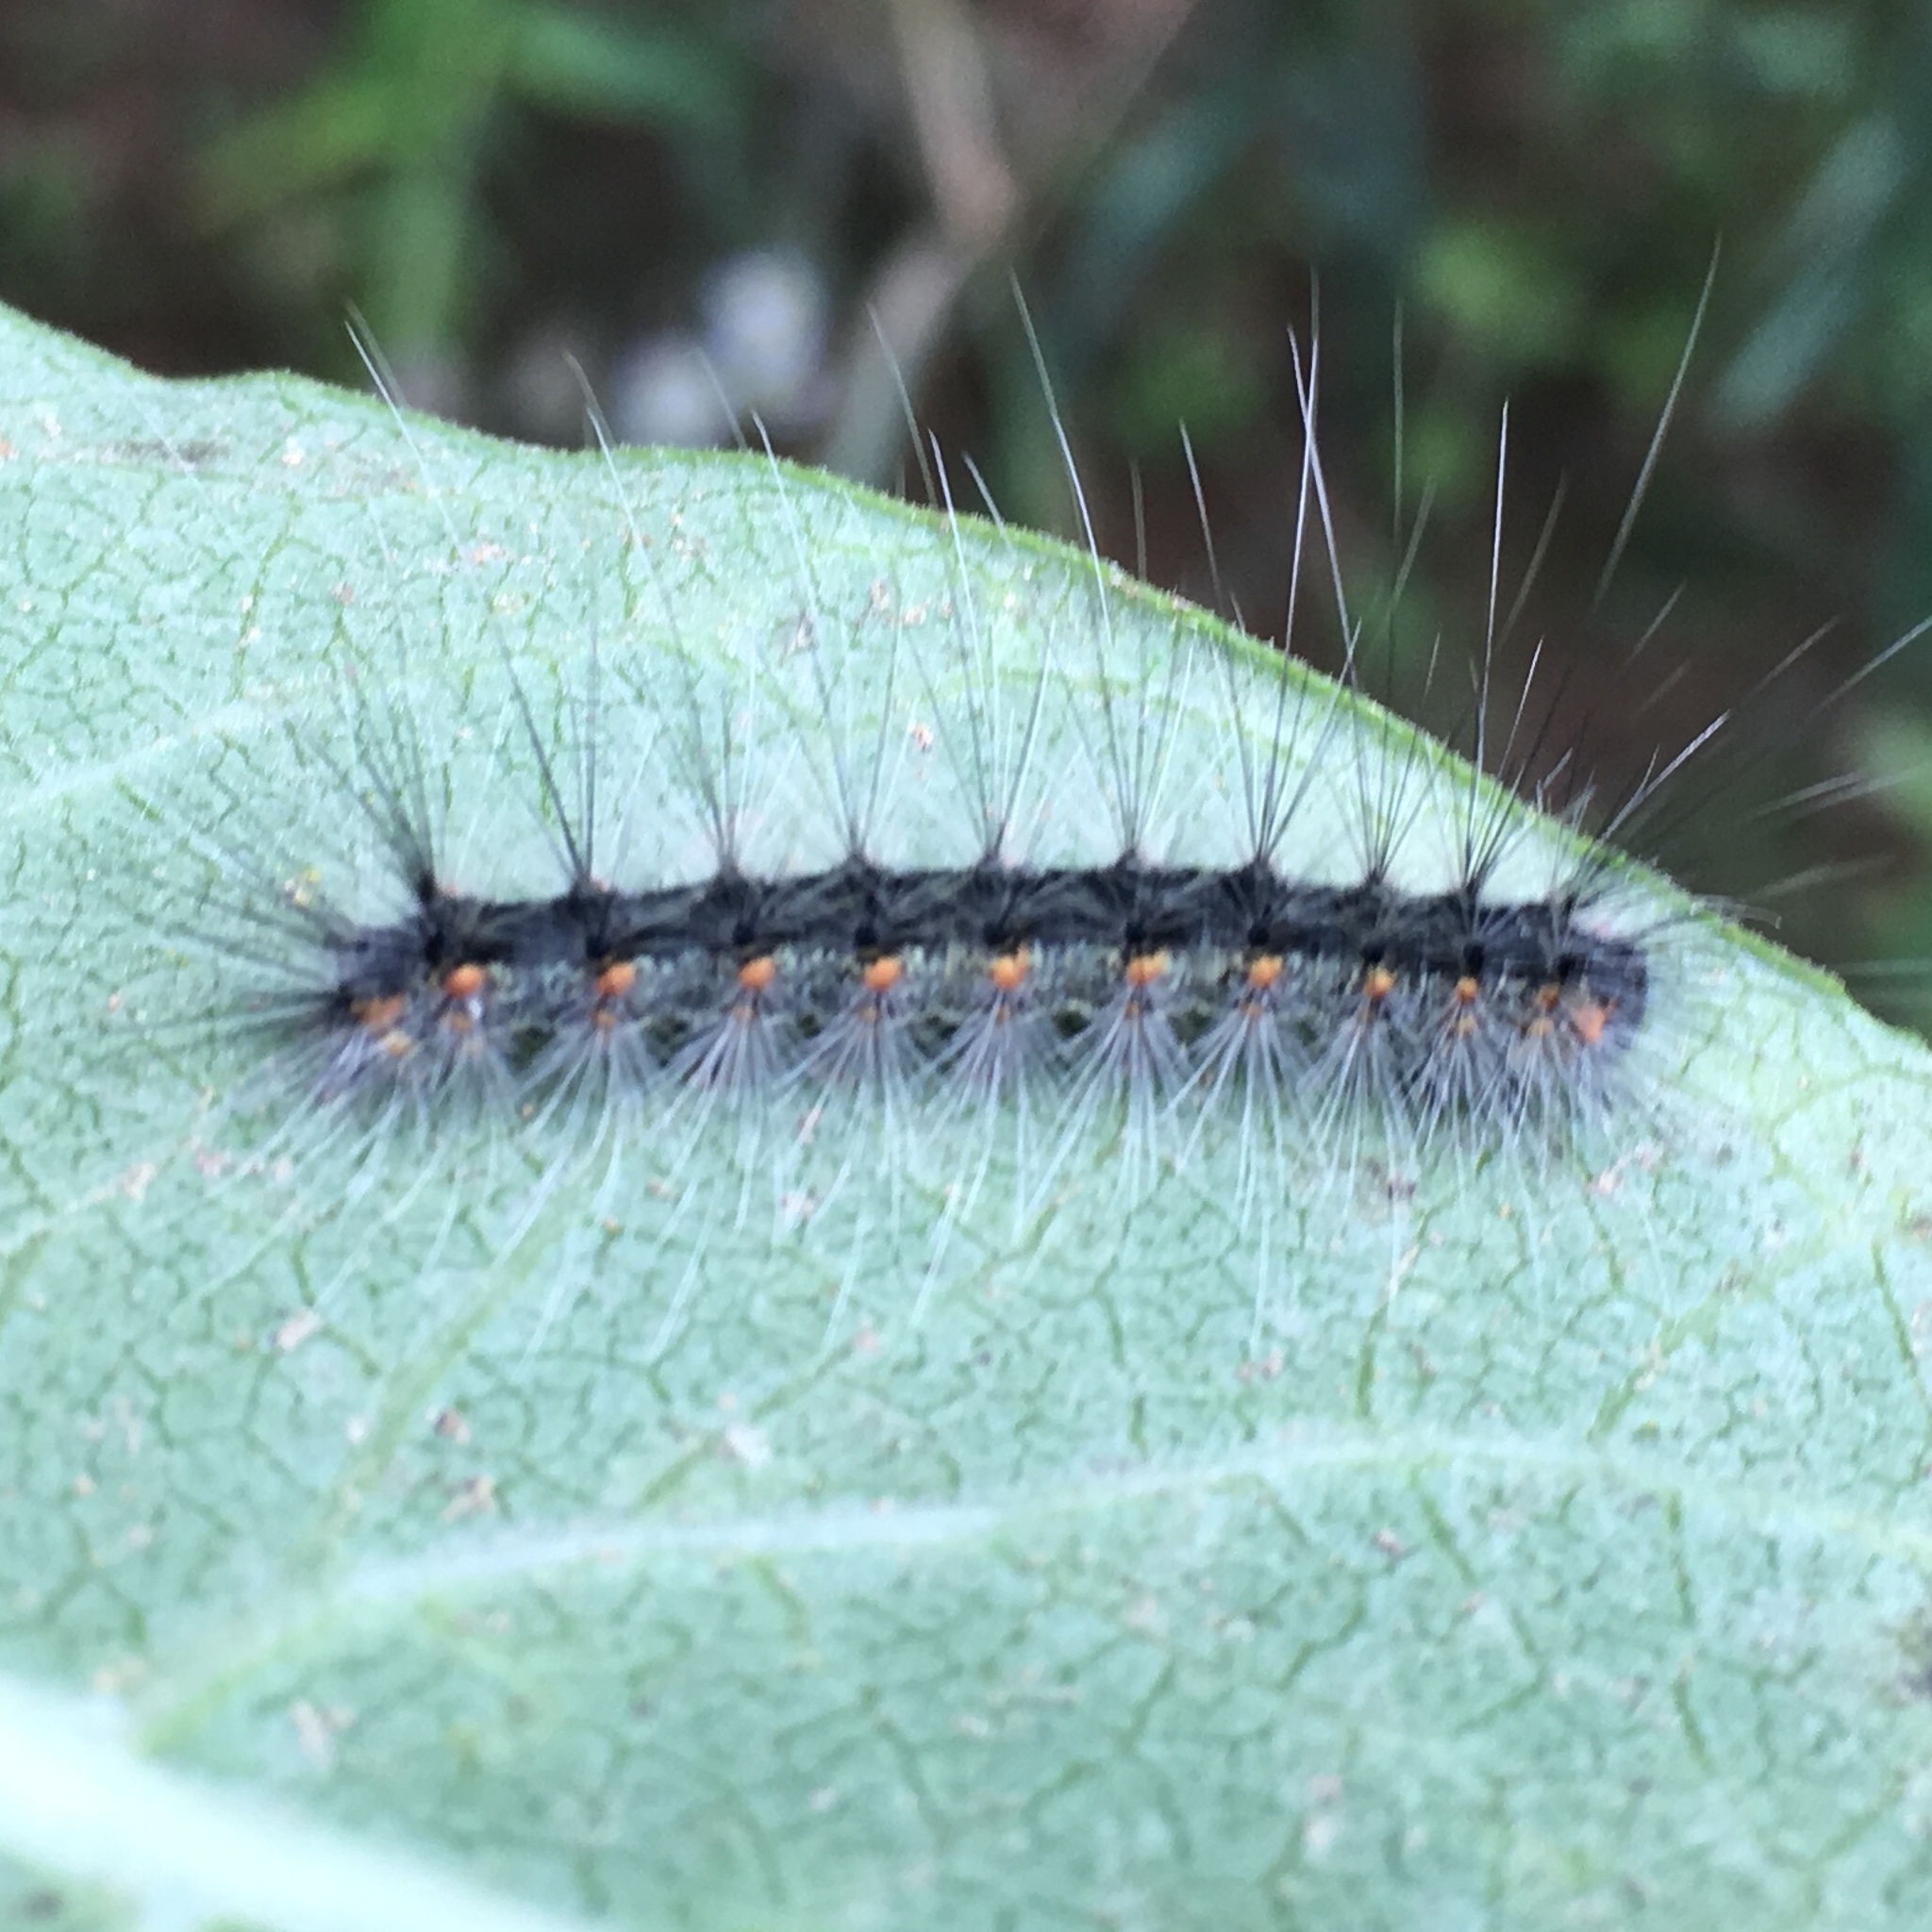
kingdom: Animalia
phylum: Arthropoda
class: Insecta
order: Lepidoptera
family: Erebidae
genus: Hyphantria
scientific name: Hyphantria cunea
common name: American white moth
